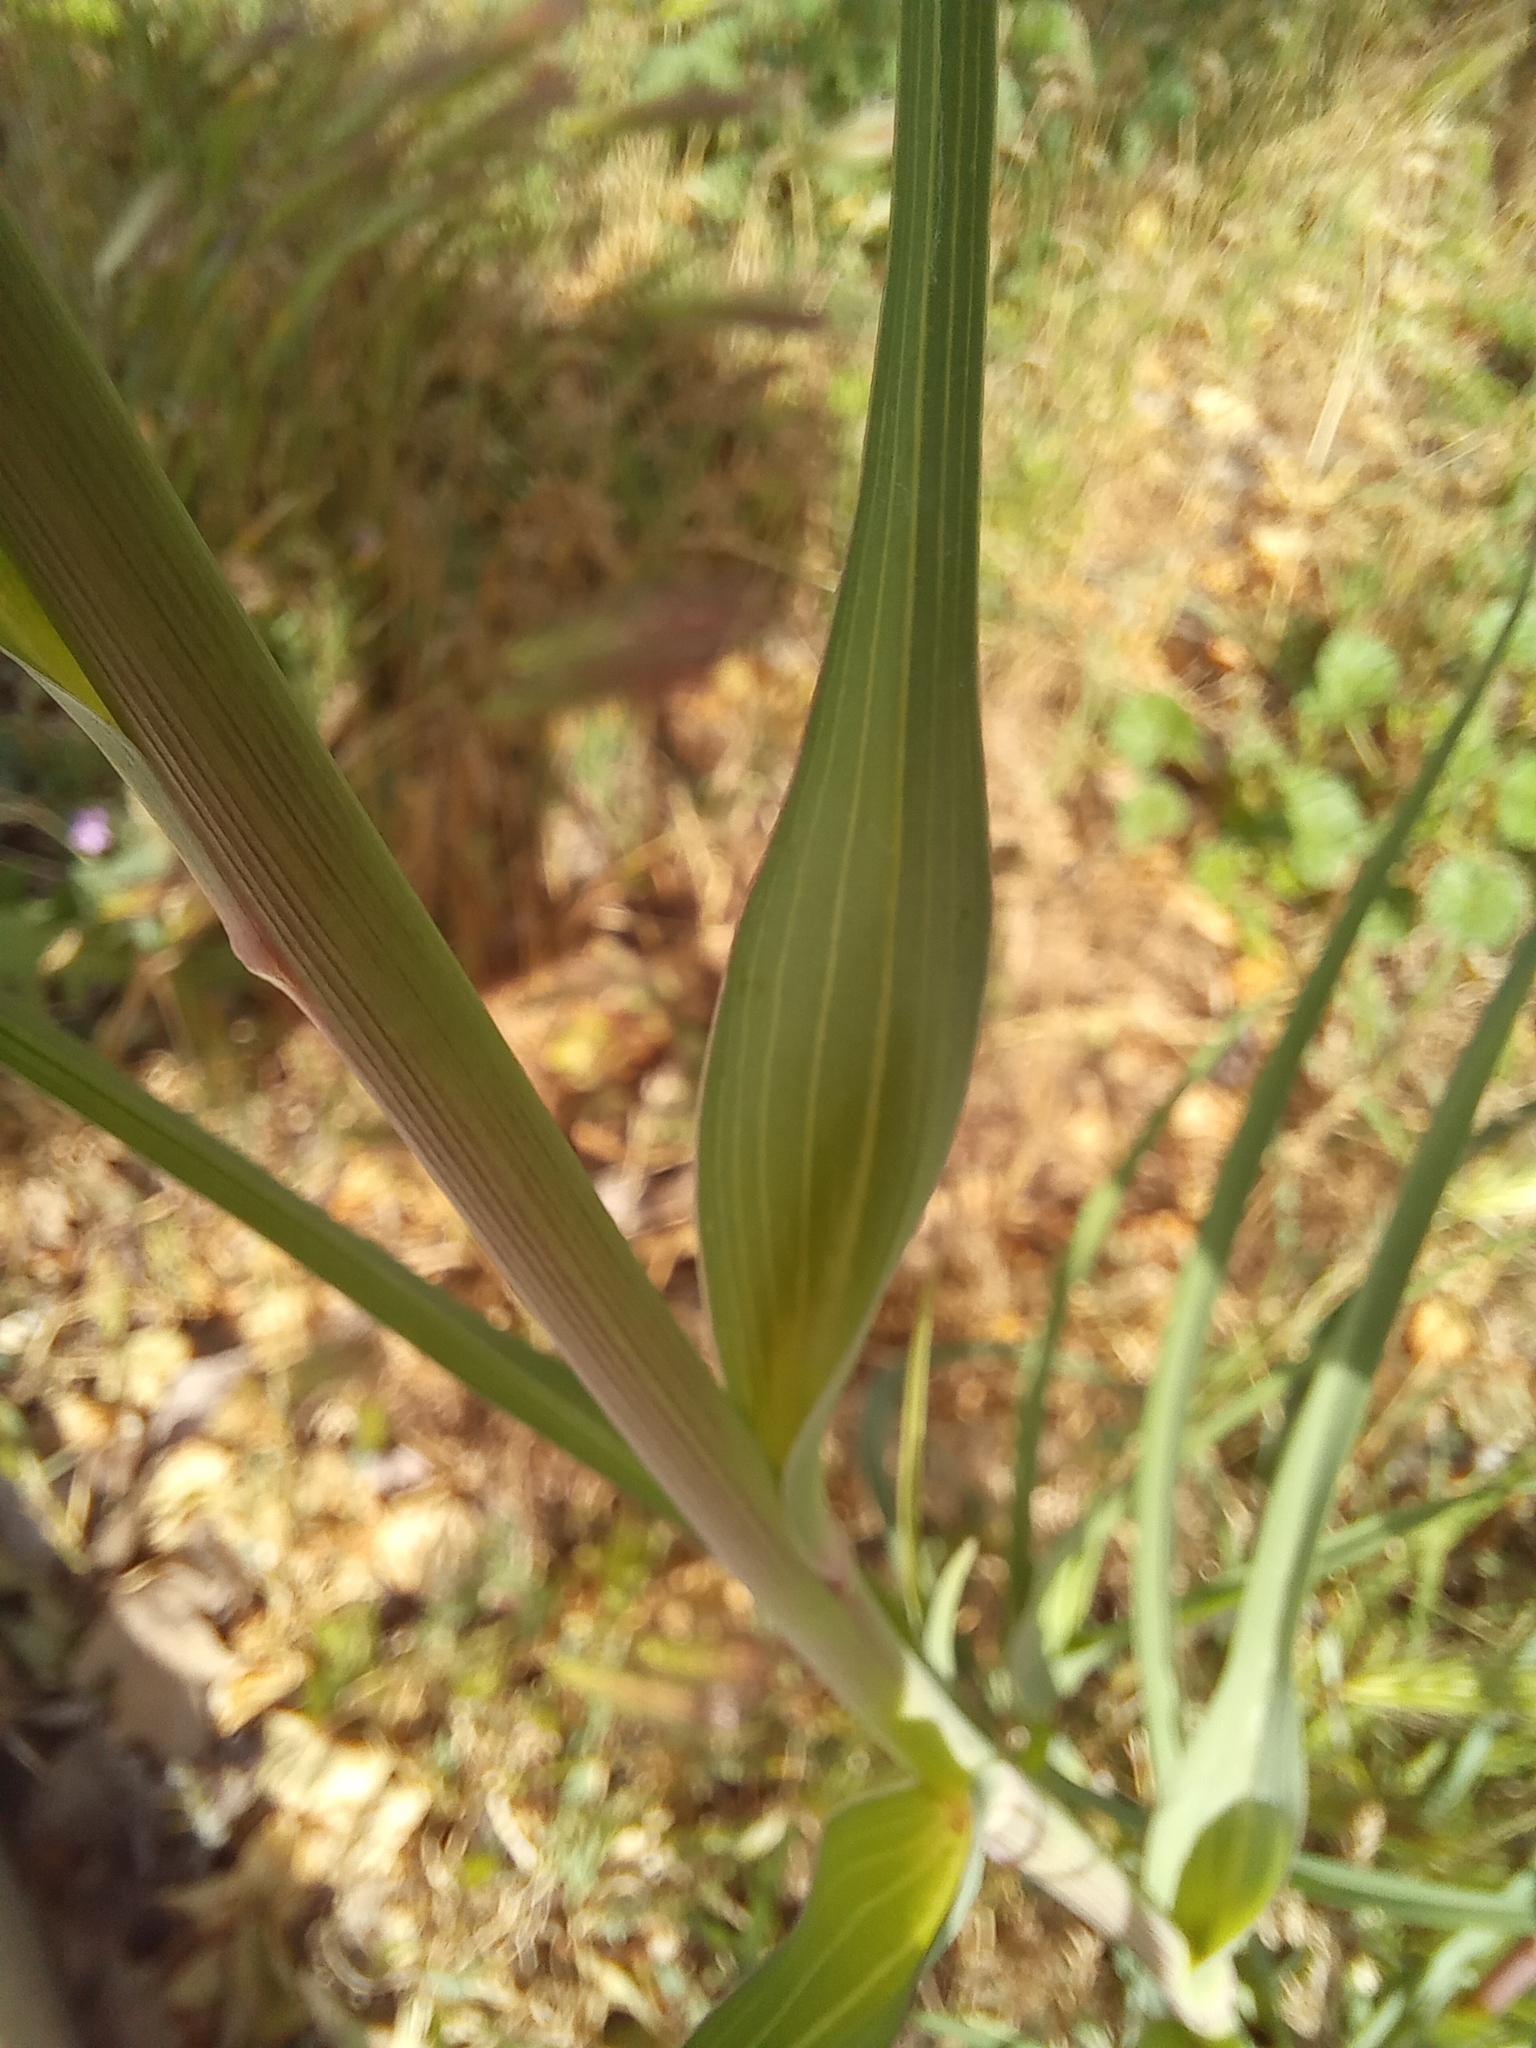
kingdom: Plantae
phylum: Tracheophyta
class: Magnoliopsida
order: Asterales
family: Asteraceae
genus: Tragopogon
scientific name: Tragopogon dubius
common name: Yellow salsify
